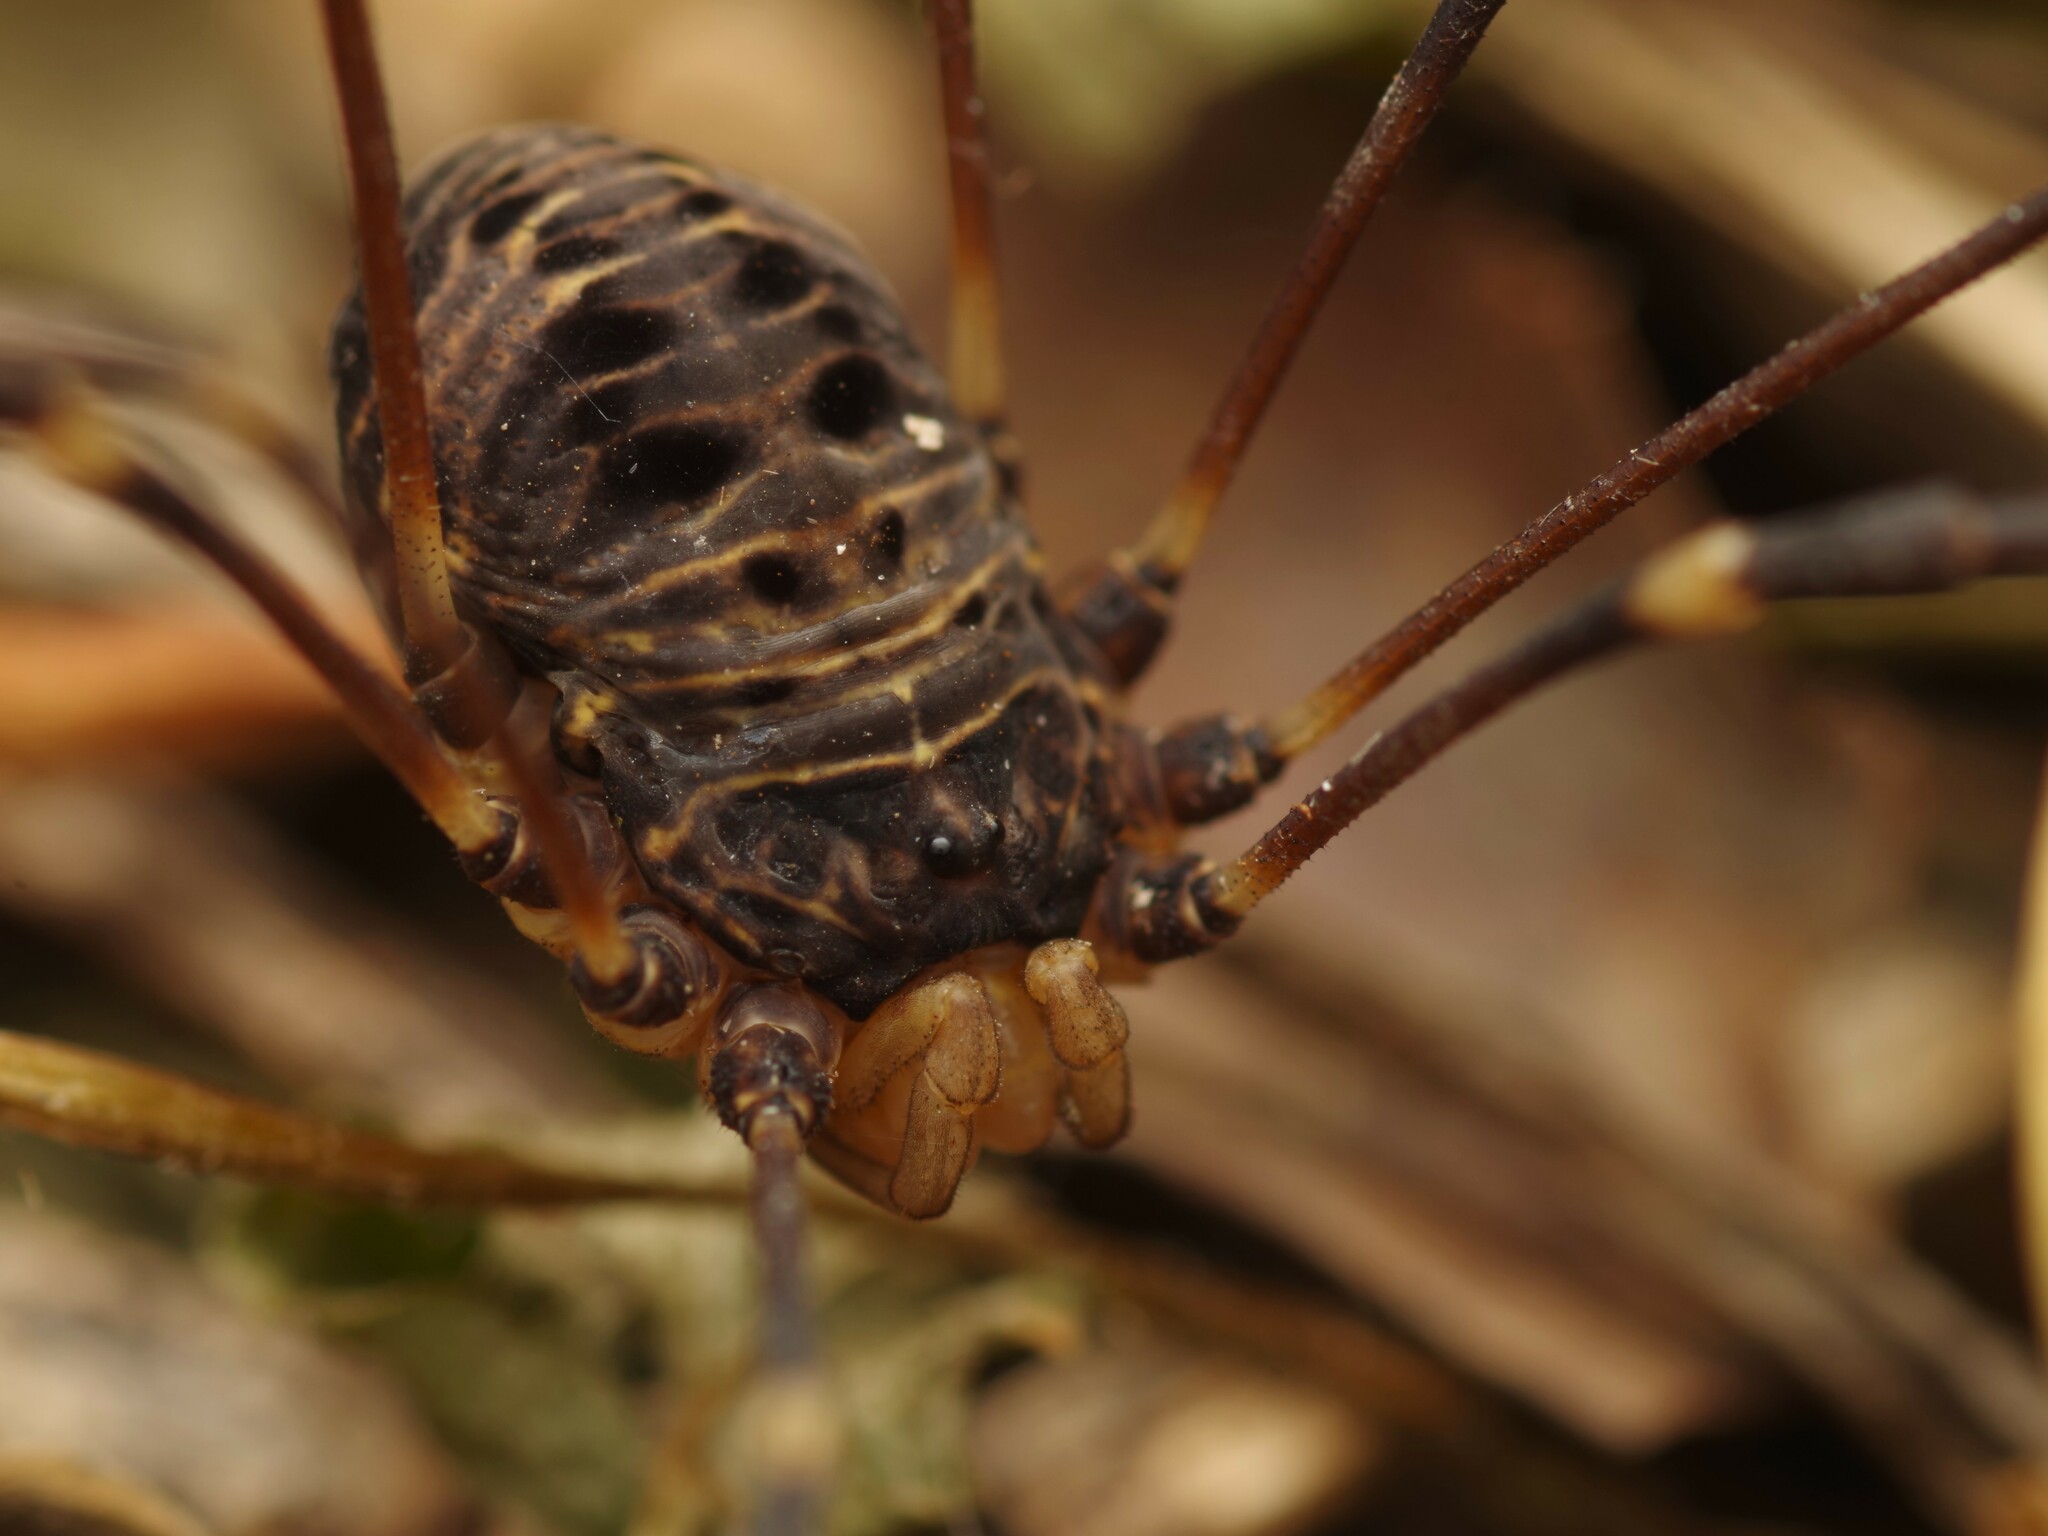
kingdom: Animalia
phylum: Arthropoda
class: Arachnida
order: Opiliones
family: Sclerosomatidae
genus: Gyas
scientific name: Gyas titanus
